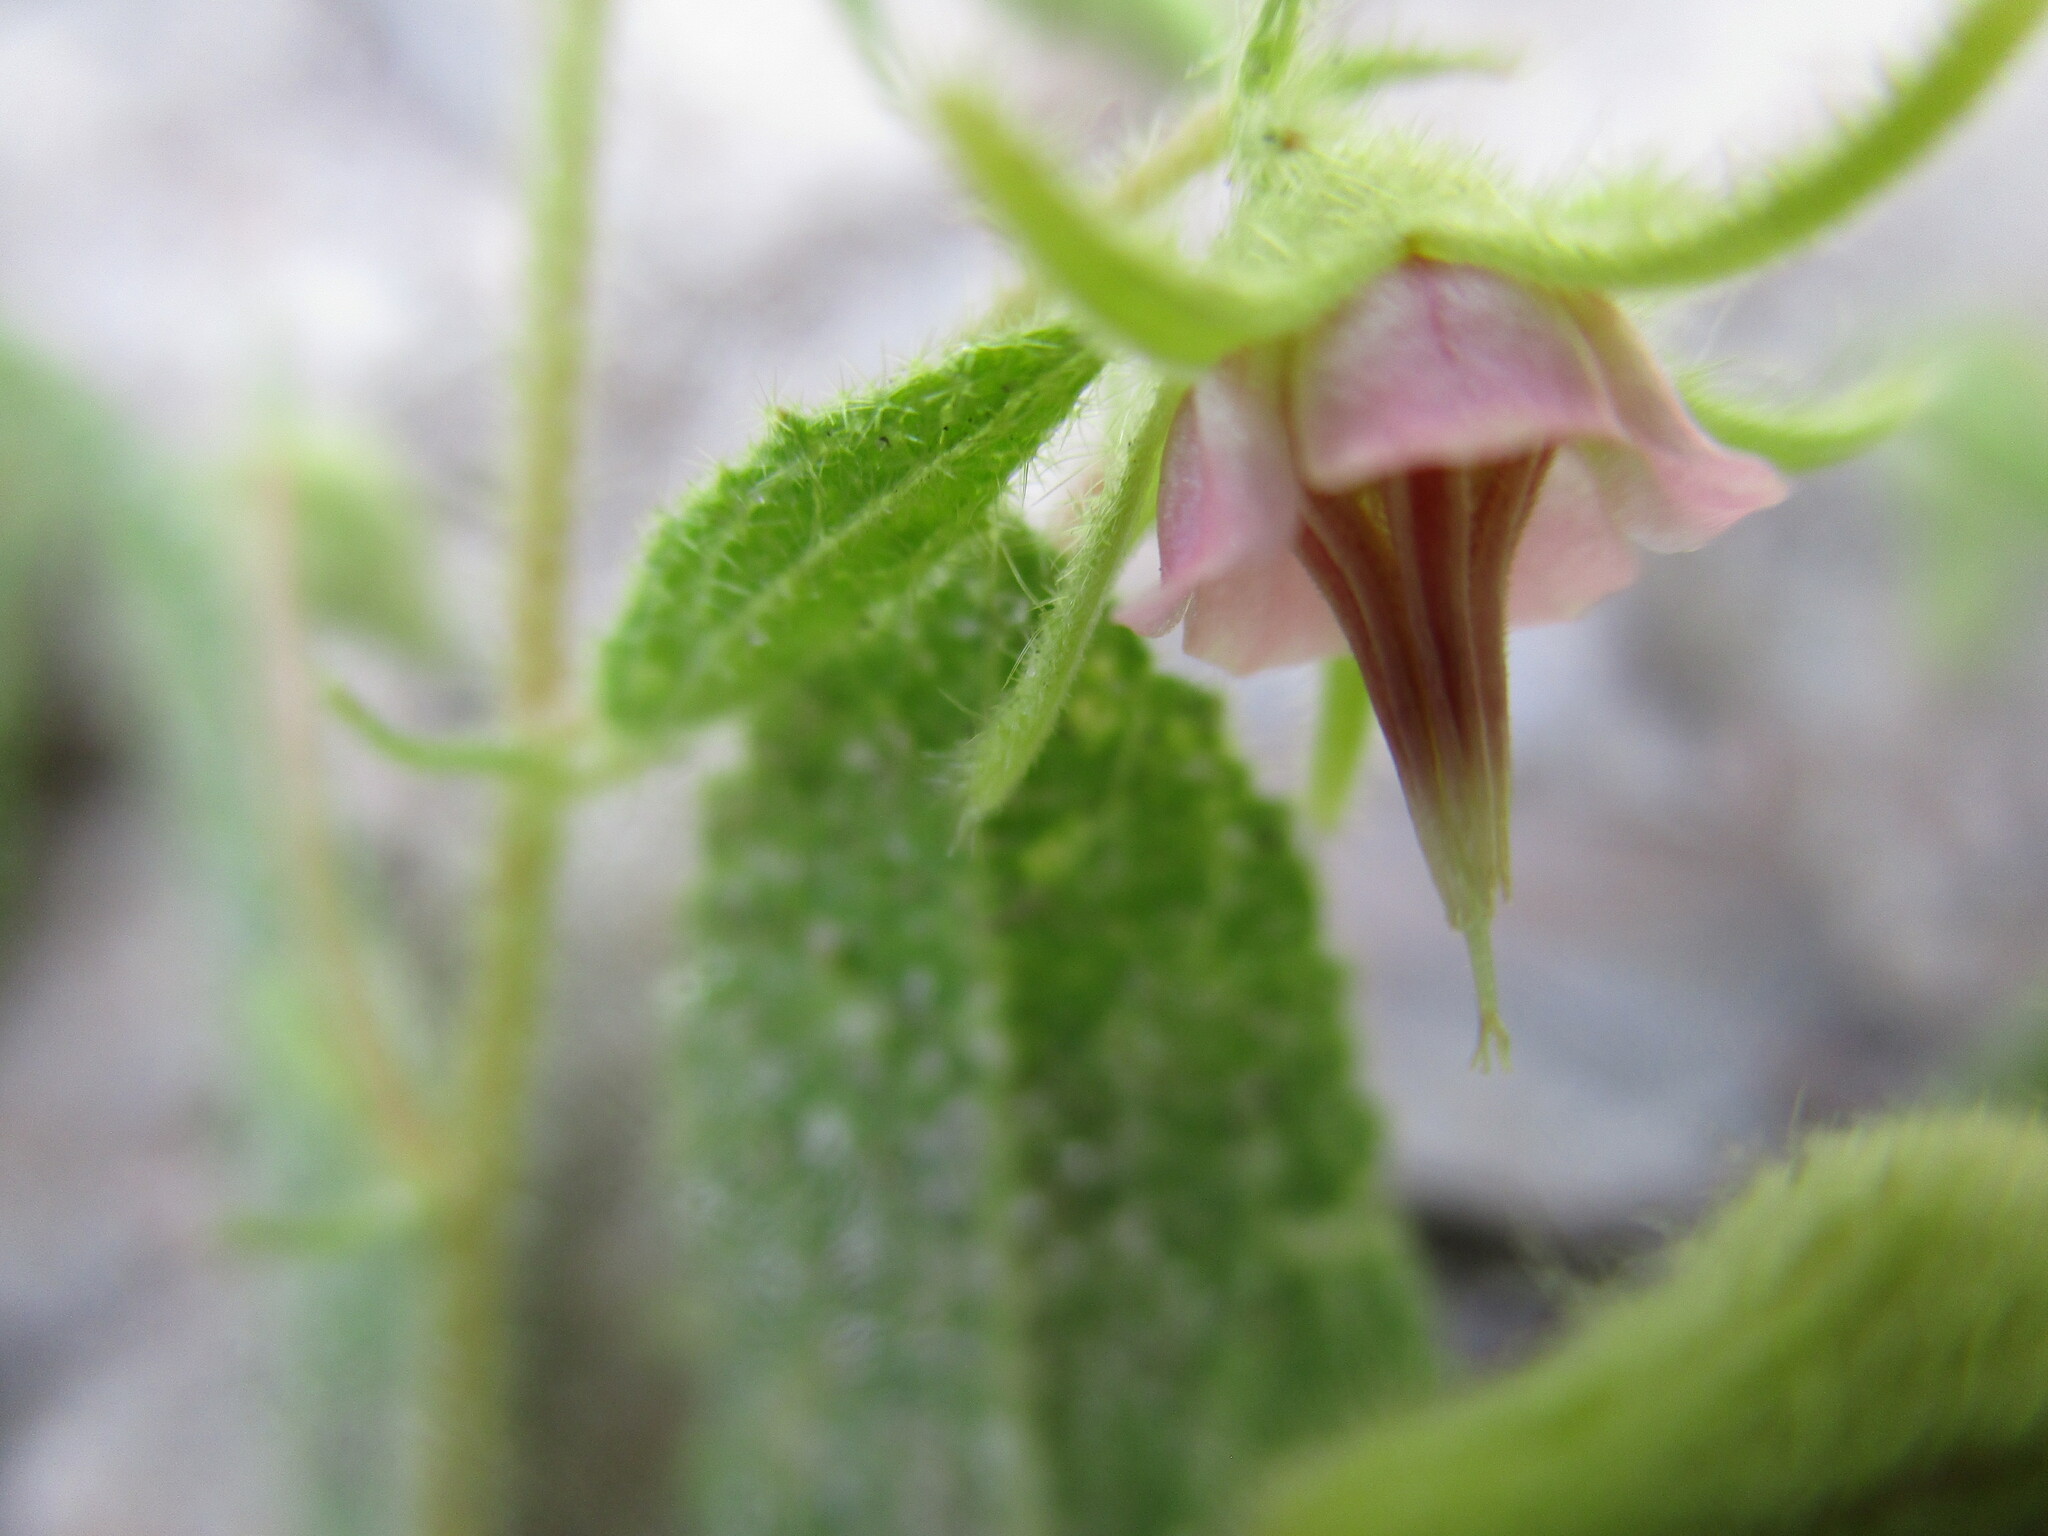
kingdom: Plantae
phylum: Tracheophyta
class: Magnoliopsida
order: Malvales
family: Malvaceae
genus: Hermannia
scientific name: Hermannia tomentosa
